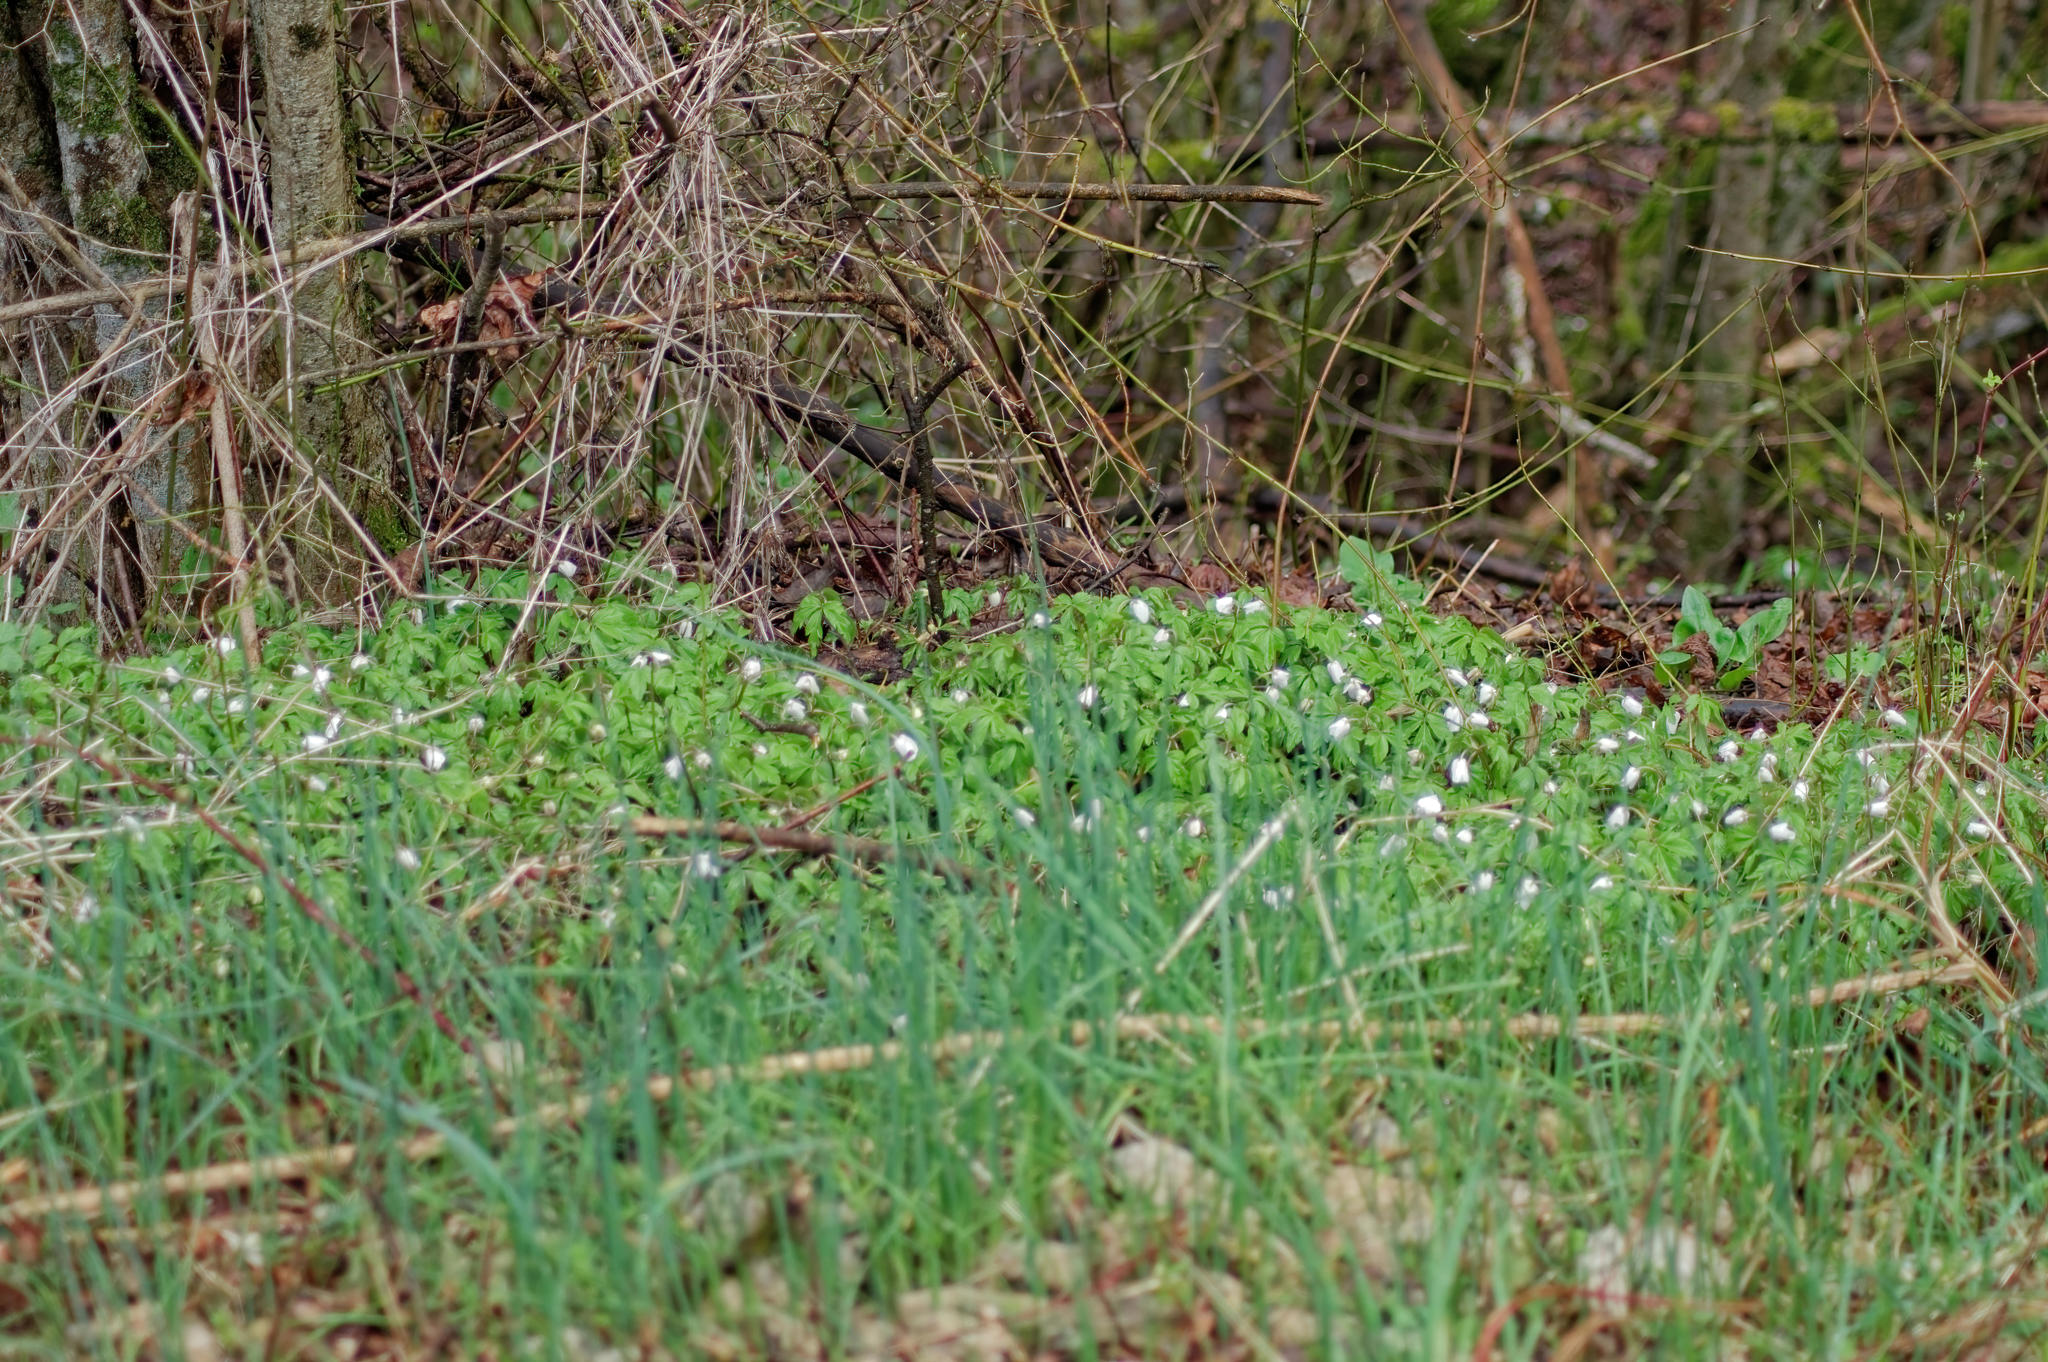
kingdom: Plantae
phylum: Tracheophyta
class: Magnoliopsida
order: Ranunculales
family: Ranunculaceae
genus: Anemone
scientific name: Anemone nemorosa
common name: Wood anemone
